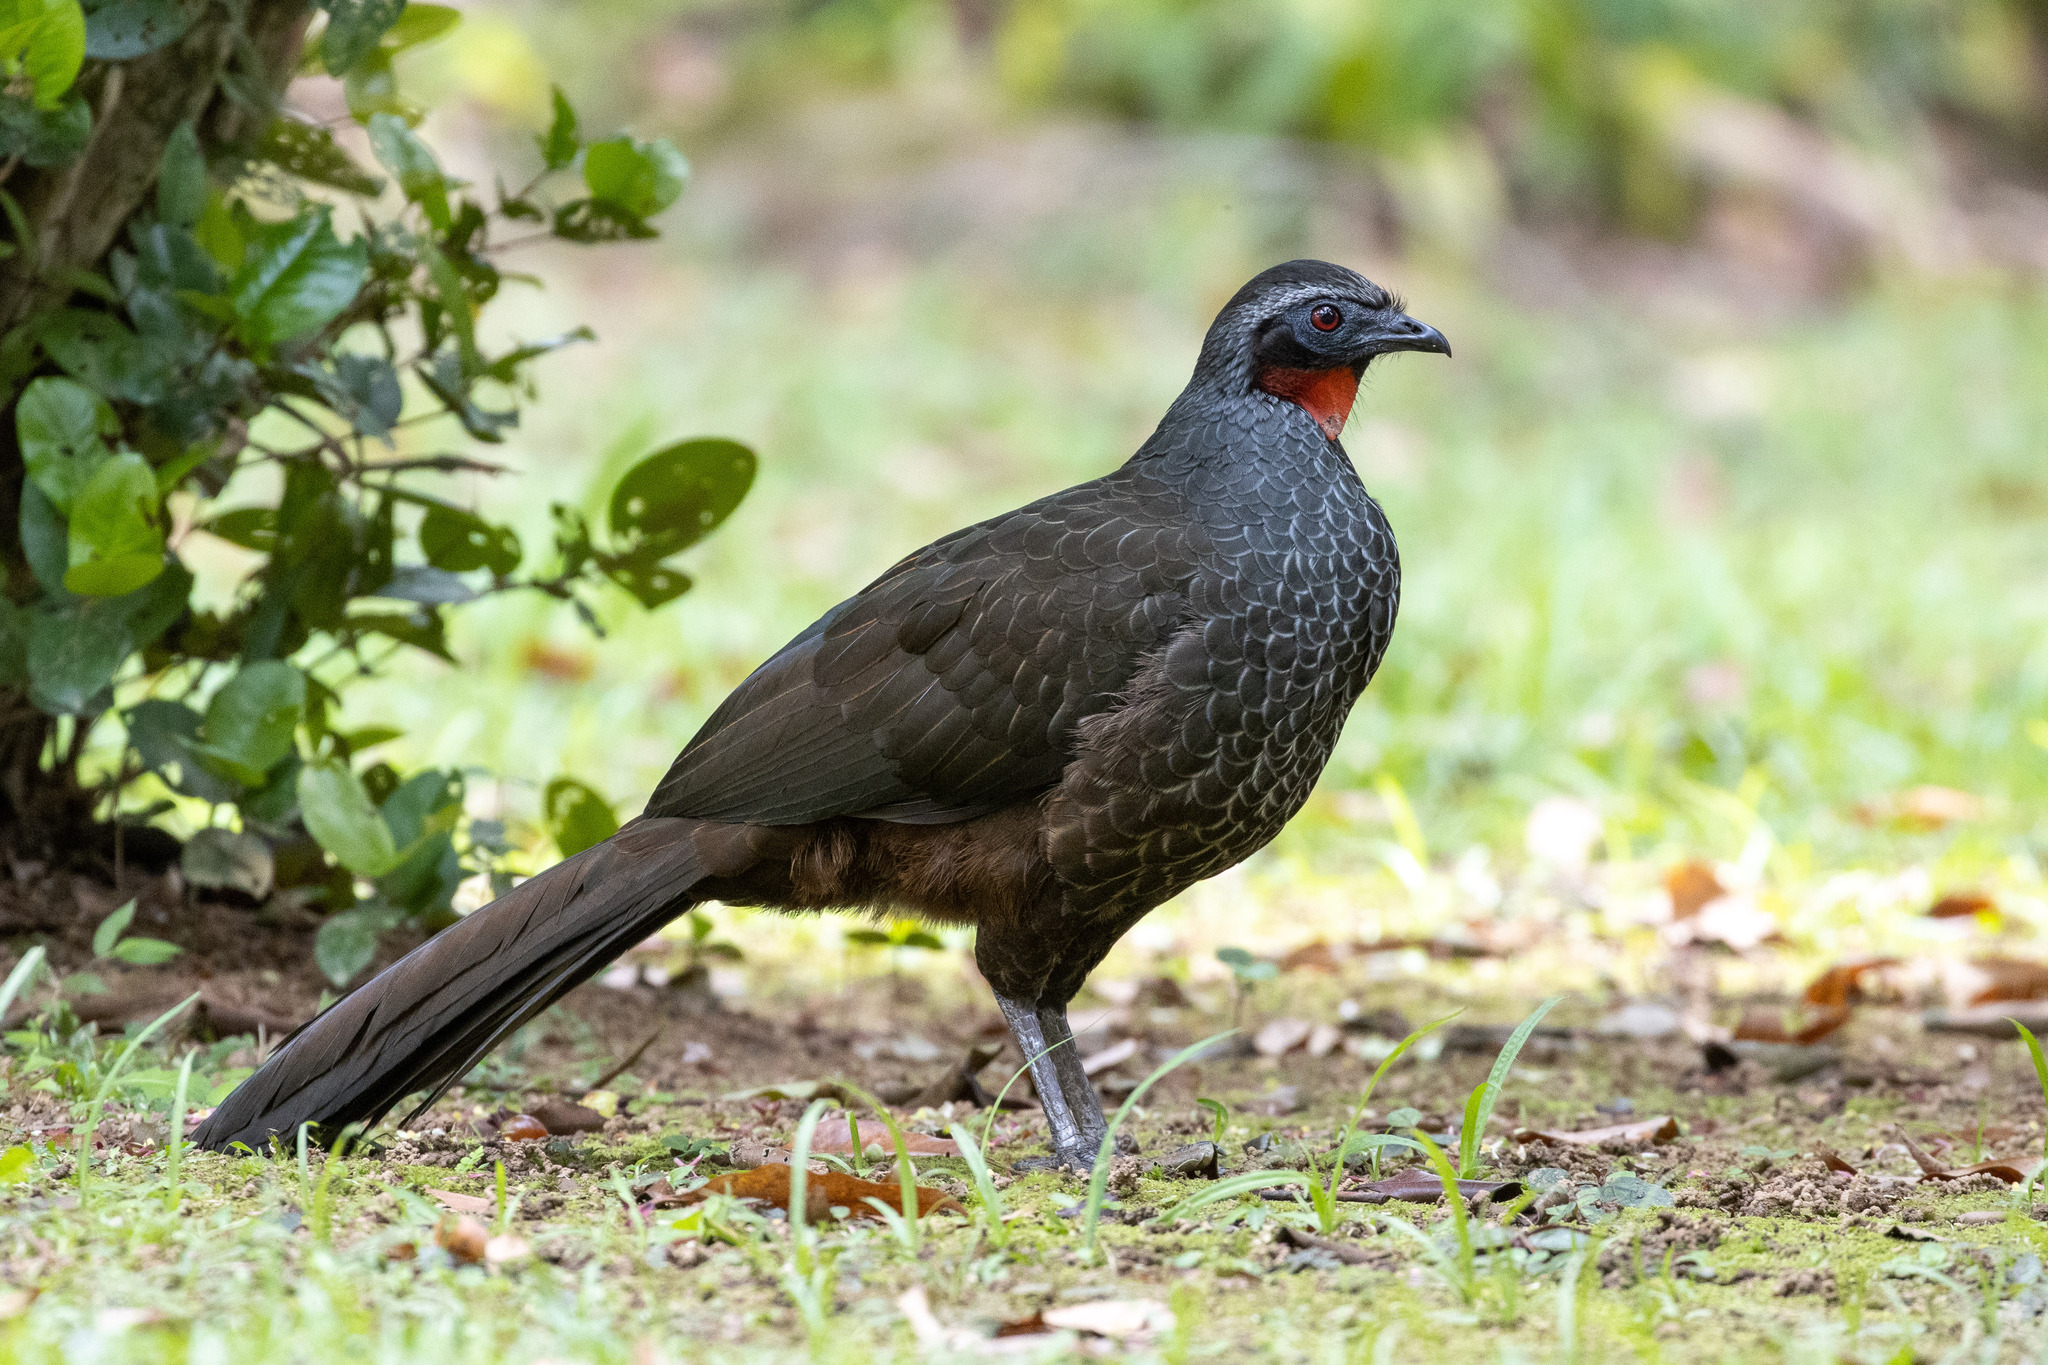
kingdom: Animalia
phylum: Chordata
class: Aves
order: Galliformes
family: Cracidae
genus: Penelope
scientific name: Penelope superciliaris
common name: Rusty-margined guan
